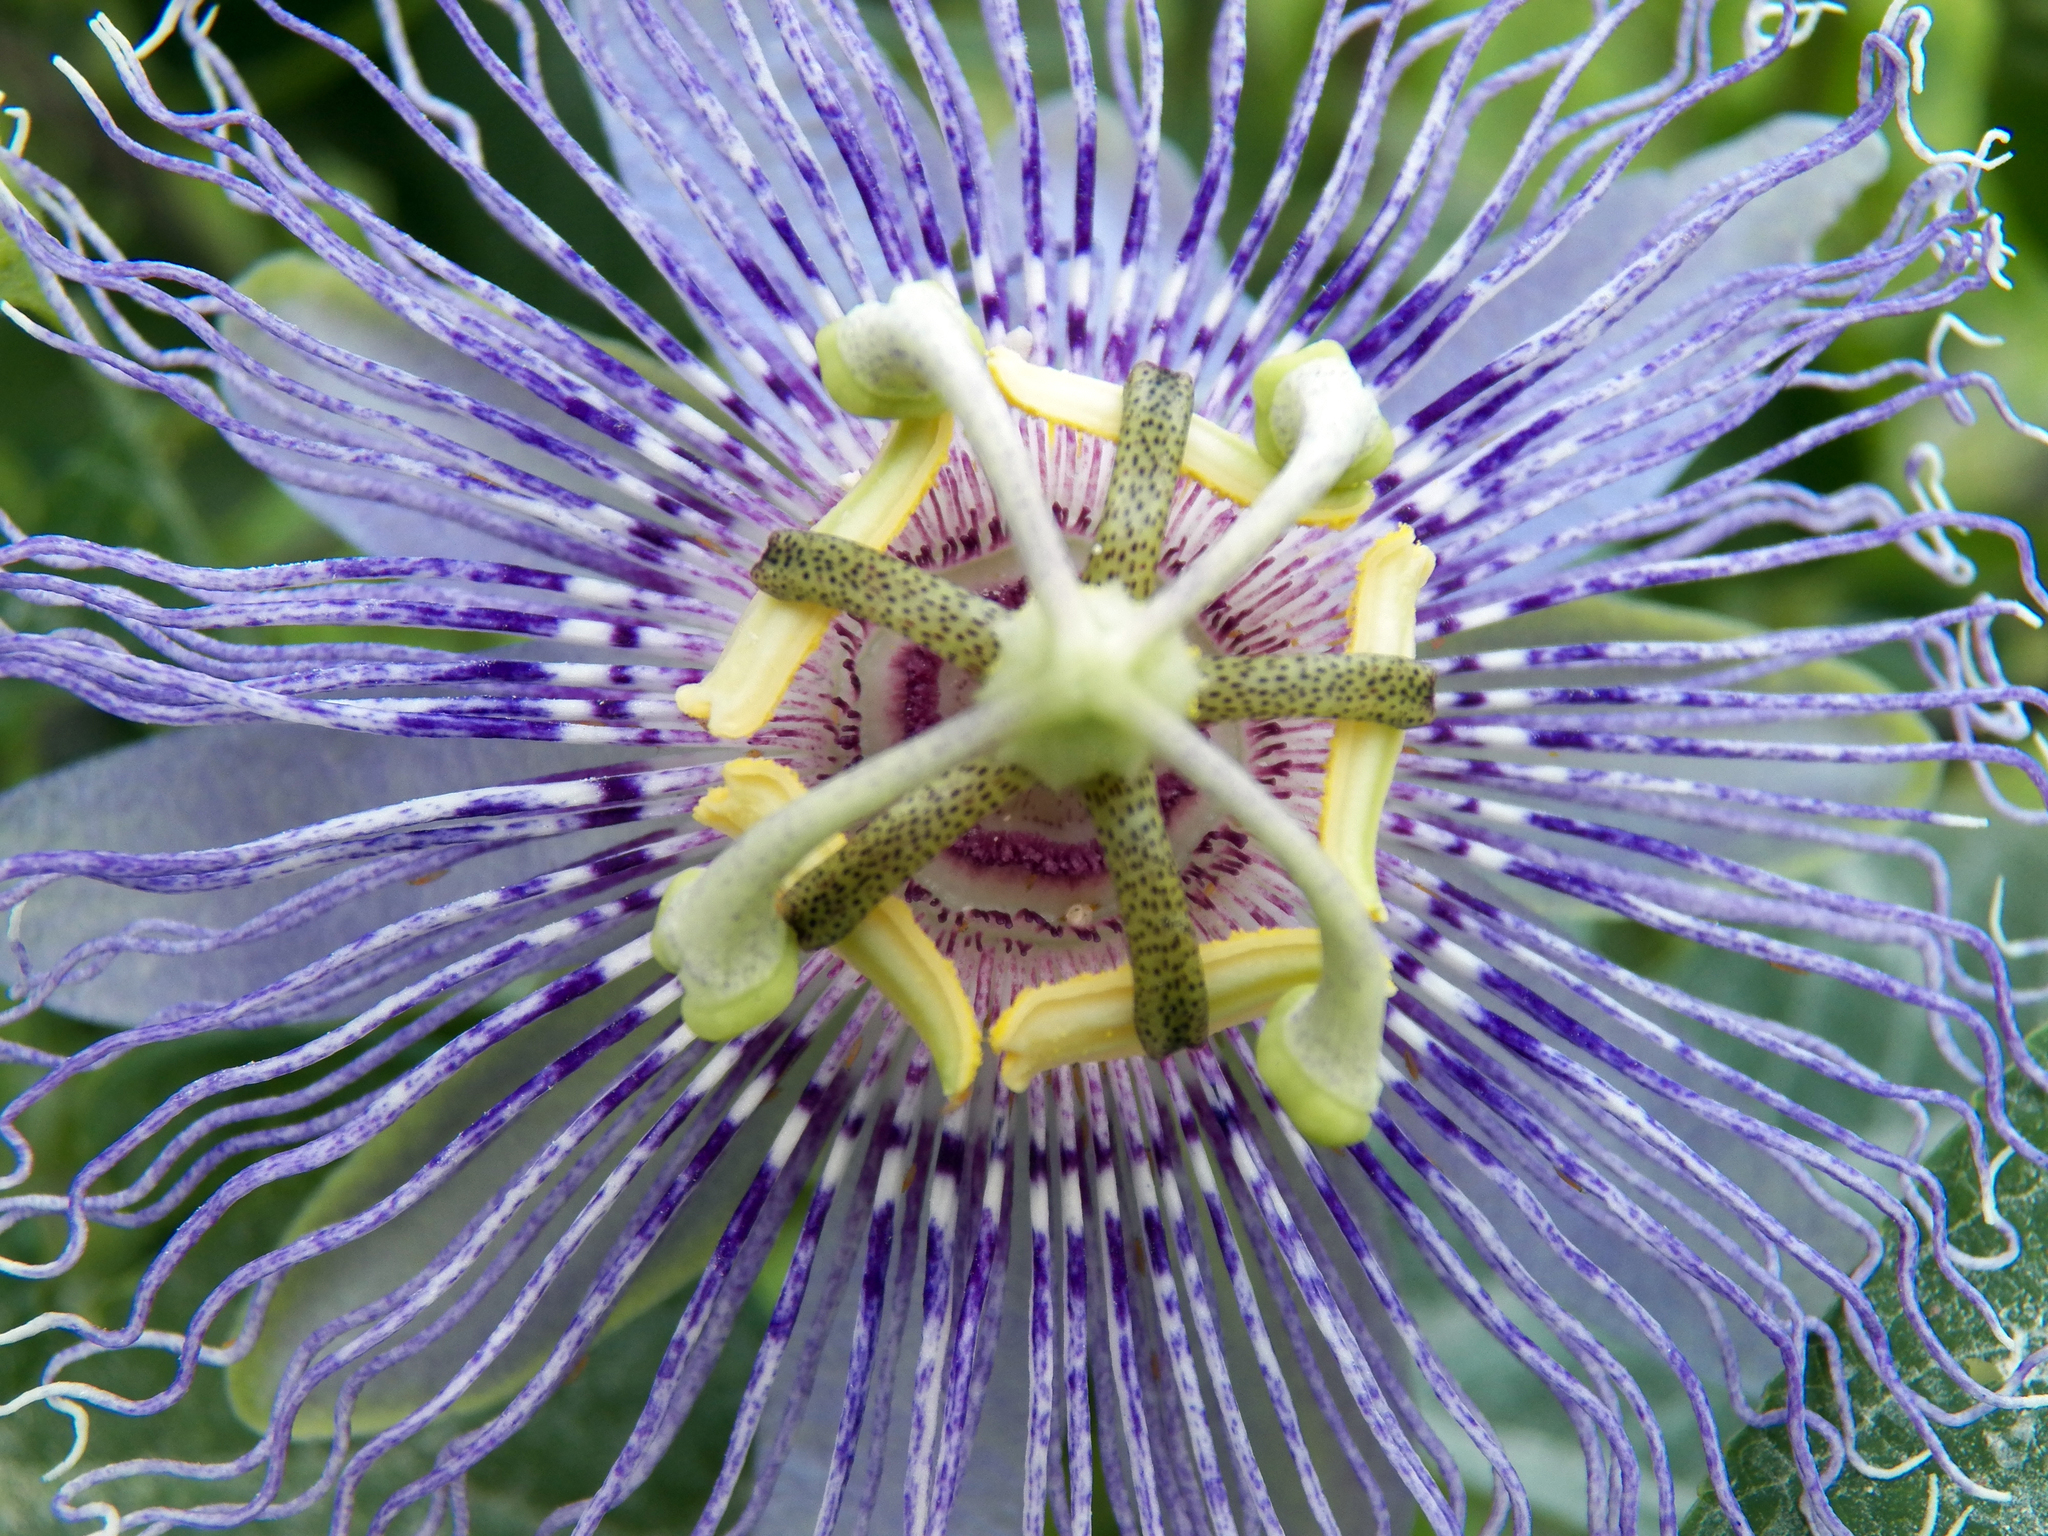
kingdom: Plantae
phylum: Tracheophyta
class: Magnoliopsida
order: Malpighiales
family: Passifloraceae
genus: Passiflora
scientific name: Passiflora incarnata
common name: Apricot-vine
